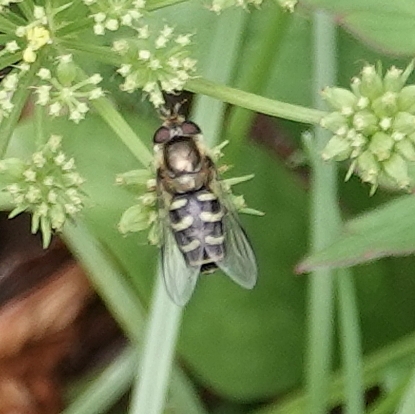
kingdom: Animalia
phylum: Arthropoda
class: Insecta
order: Diptera
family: Syrphidae
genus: Lapposyrphus
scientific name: Lapposyrphus lapponicus
